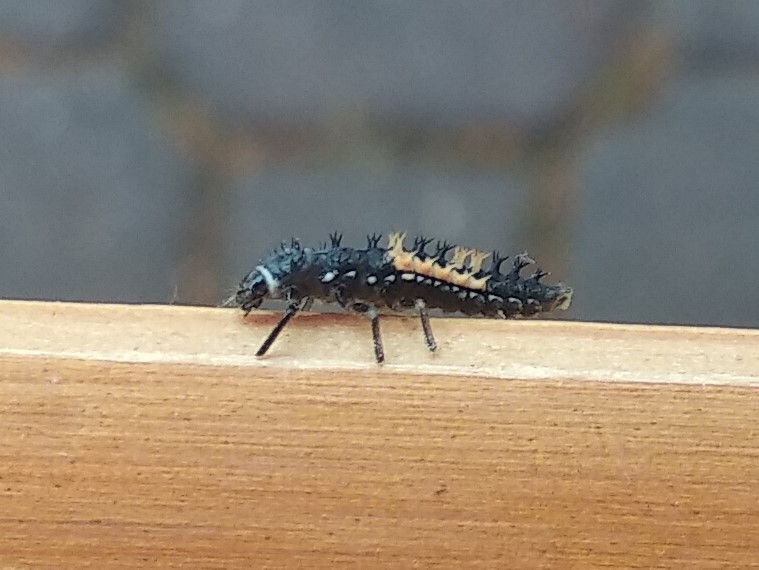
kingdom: Animalia
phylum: Arthropoda
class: Insecta
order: Coleoptera
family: Coccinellidae
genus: Harmonia
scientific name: Harmonia axyridis
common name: Harlequin ladybird
